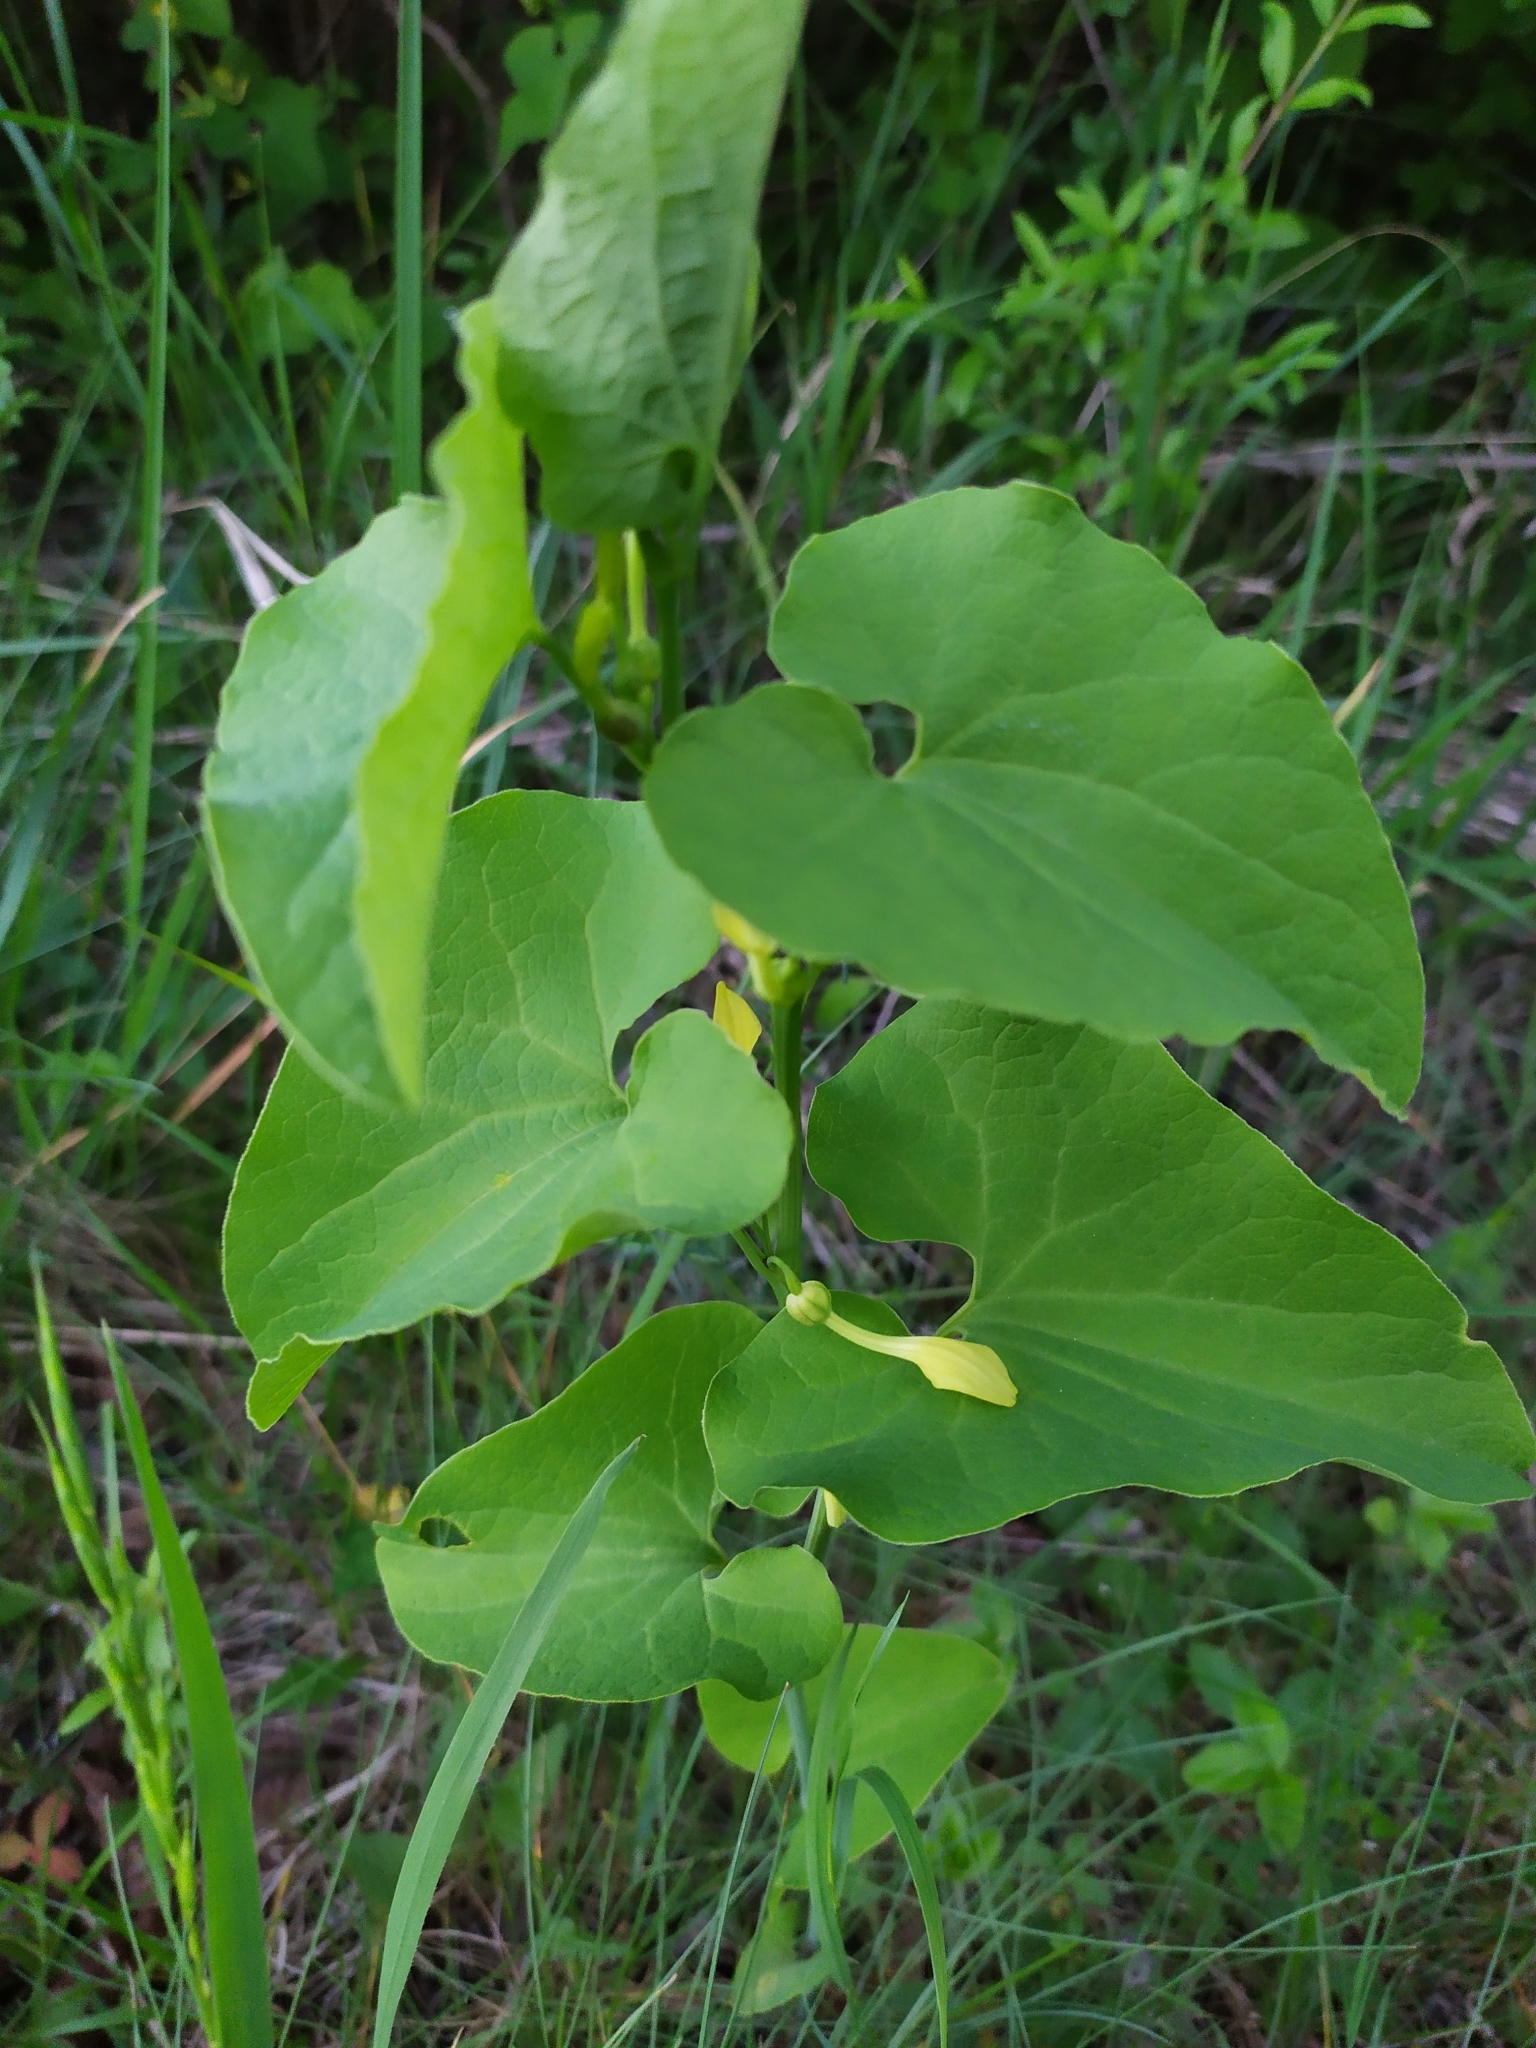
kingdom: Plantae
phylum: Tracheophyta
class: Magnoliopsida
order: Piperales
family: Aristolochiaceae
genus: Aristolochia
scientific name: Aristolochia clematitis
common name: Birthwort
